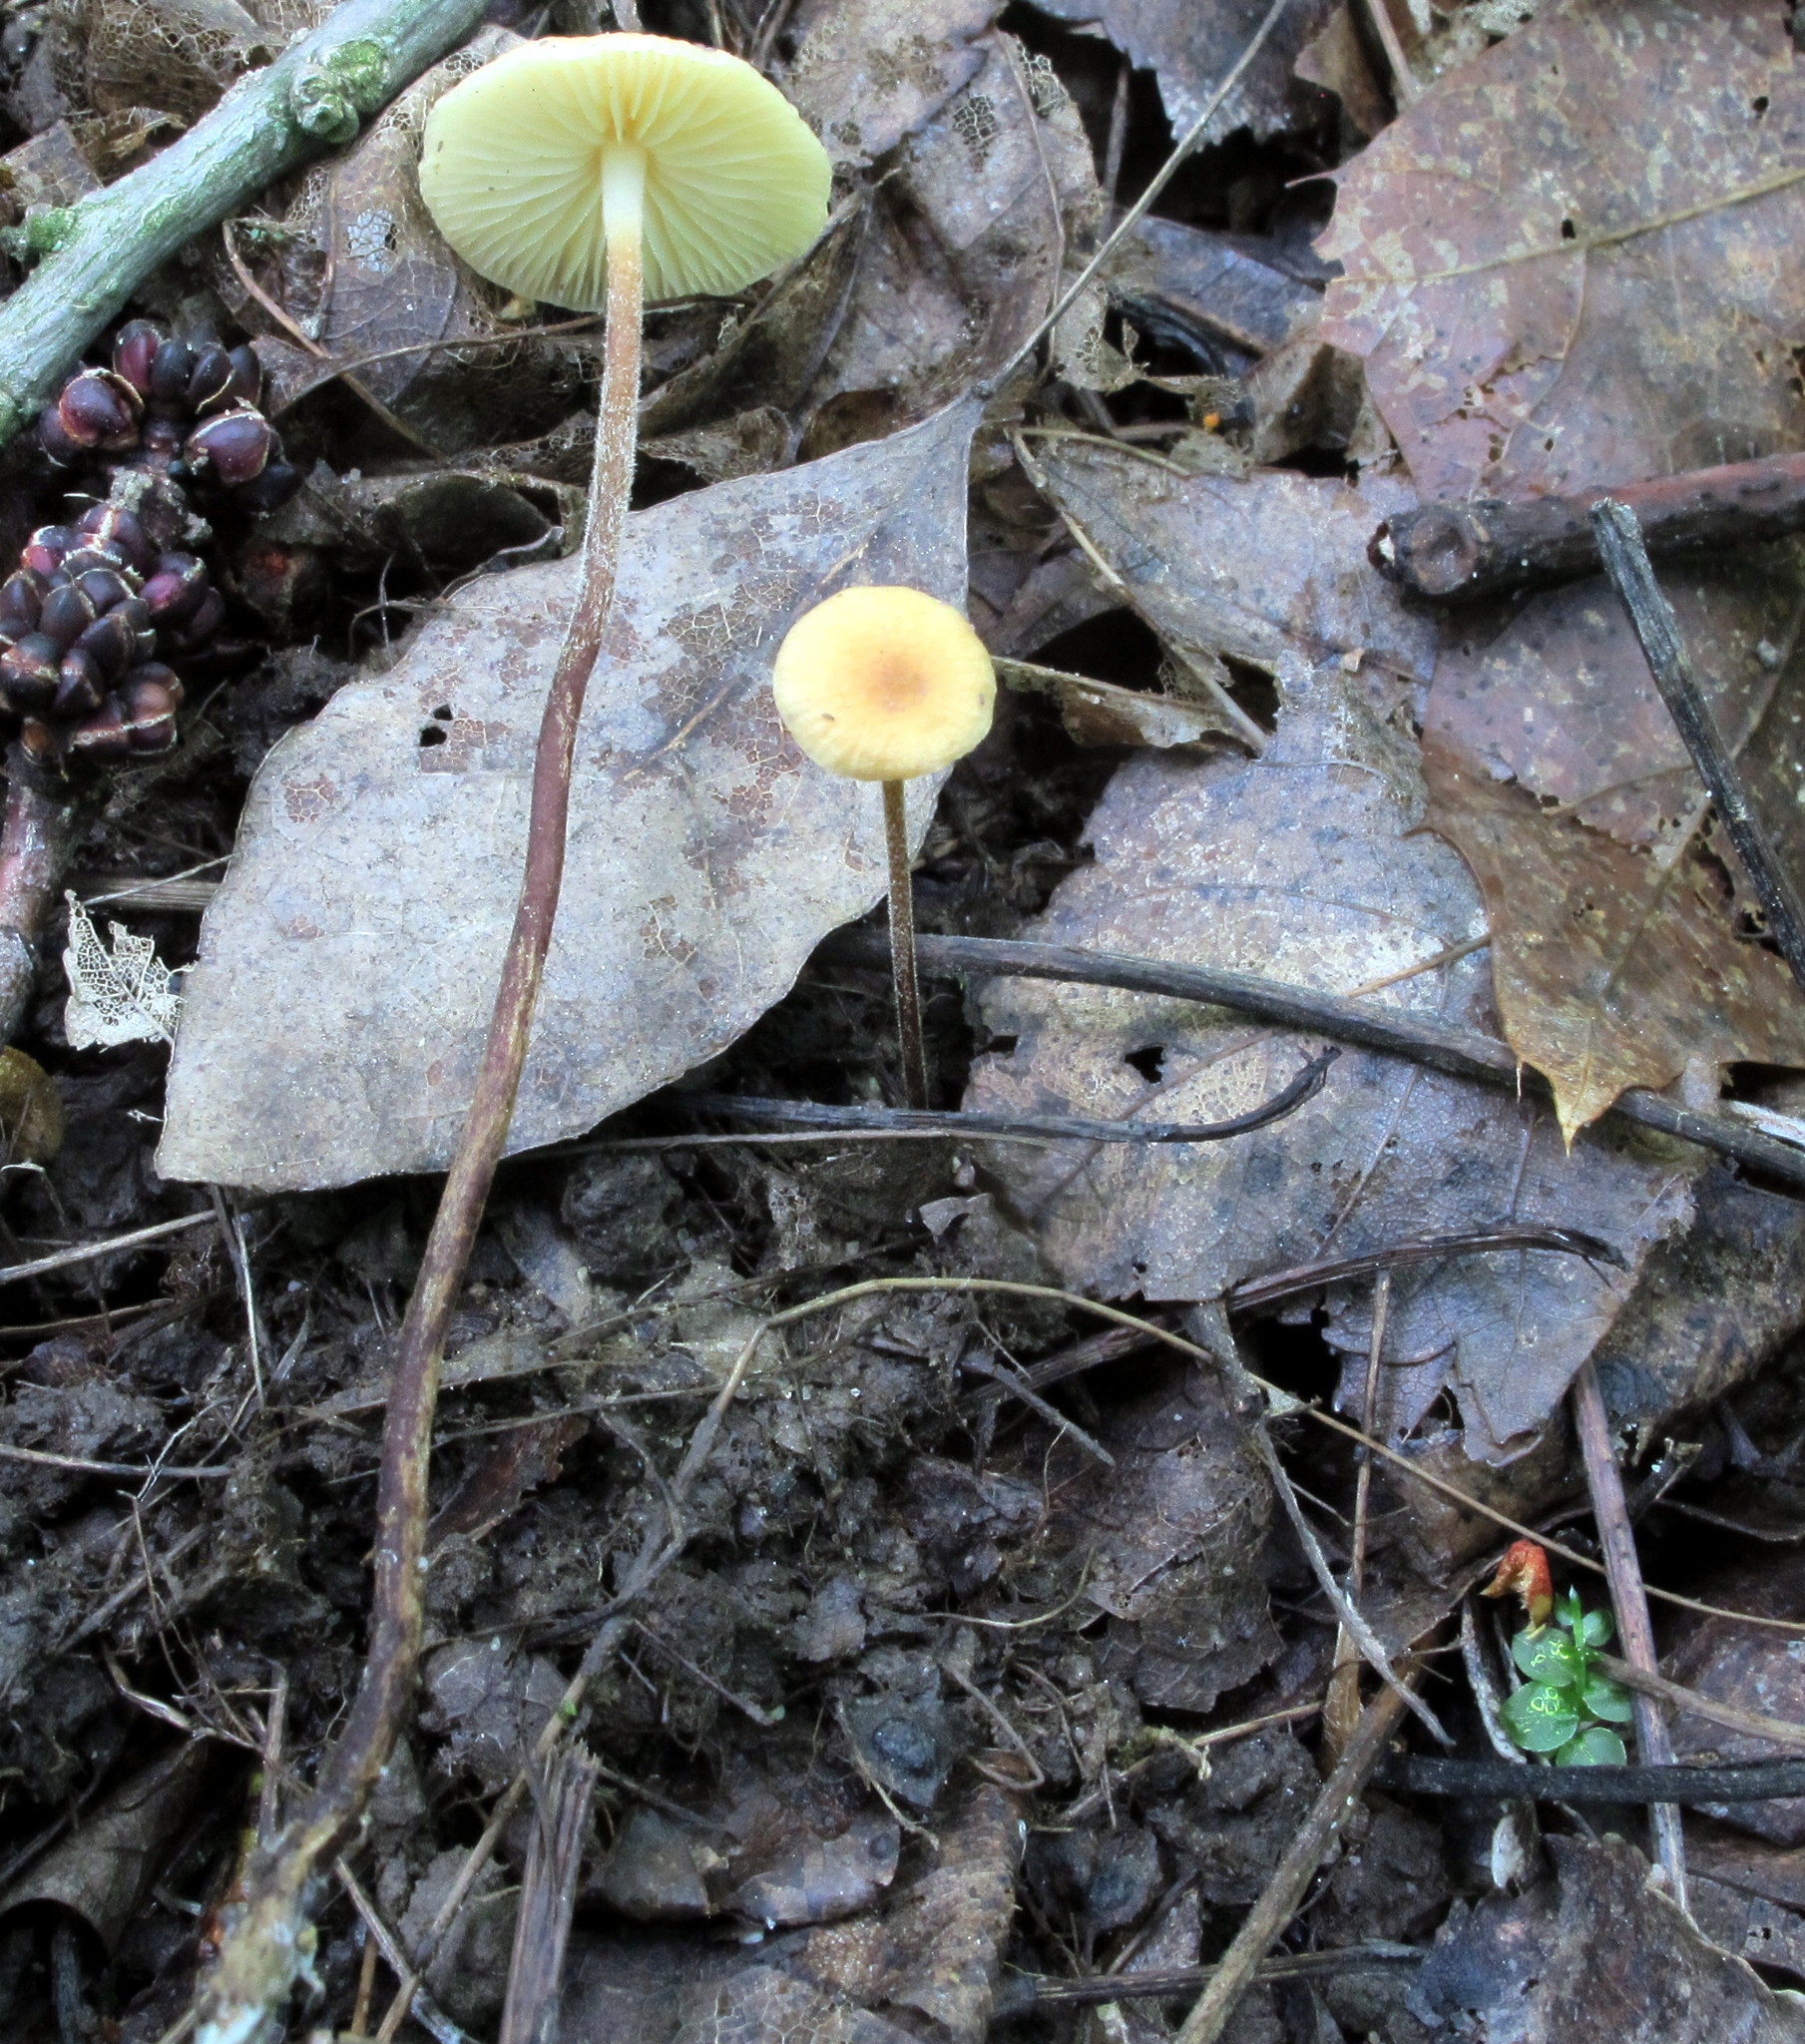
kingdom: Fungi
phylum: Basidiomycota
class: Agaricomycetes
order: Agaricales
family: Physalacriaceae
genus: Rhizomarasmius
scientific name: Rhizomarasmius pyrrhocephalus
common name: Hairy long stem marasmius
